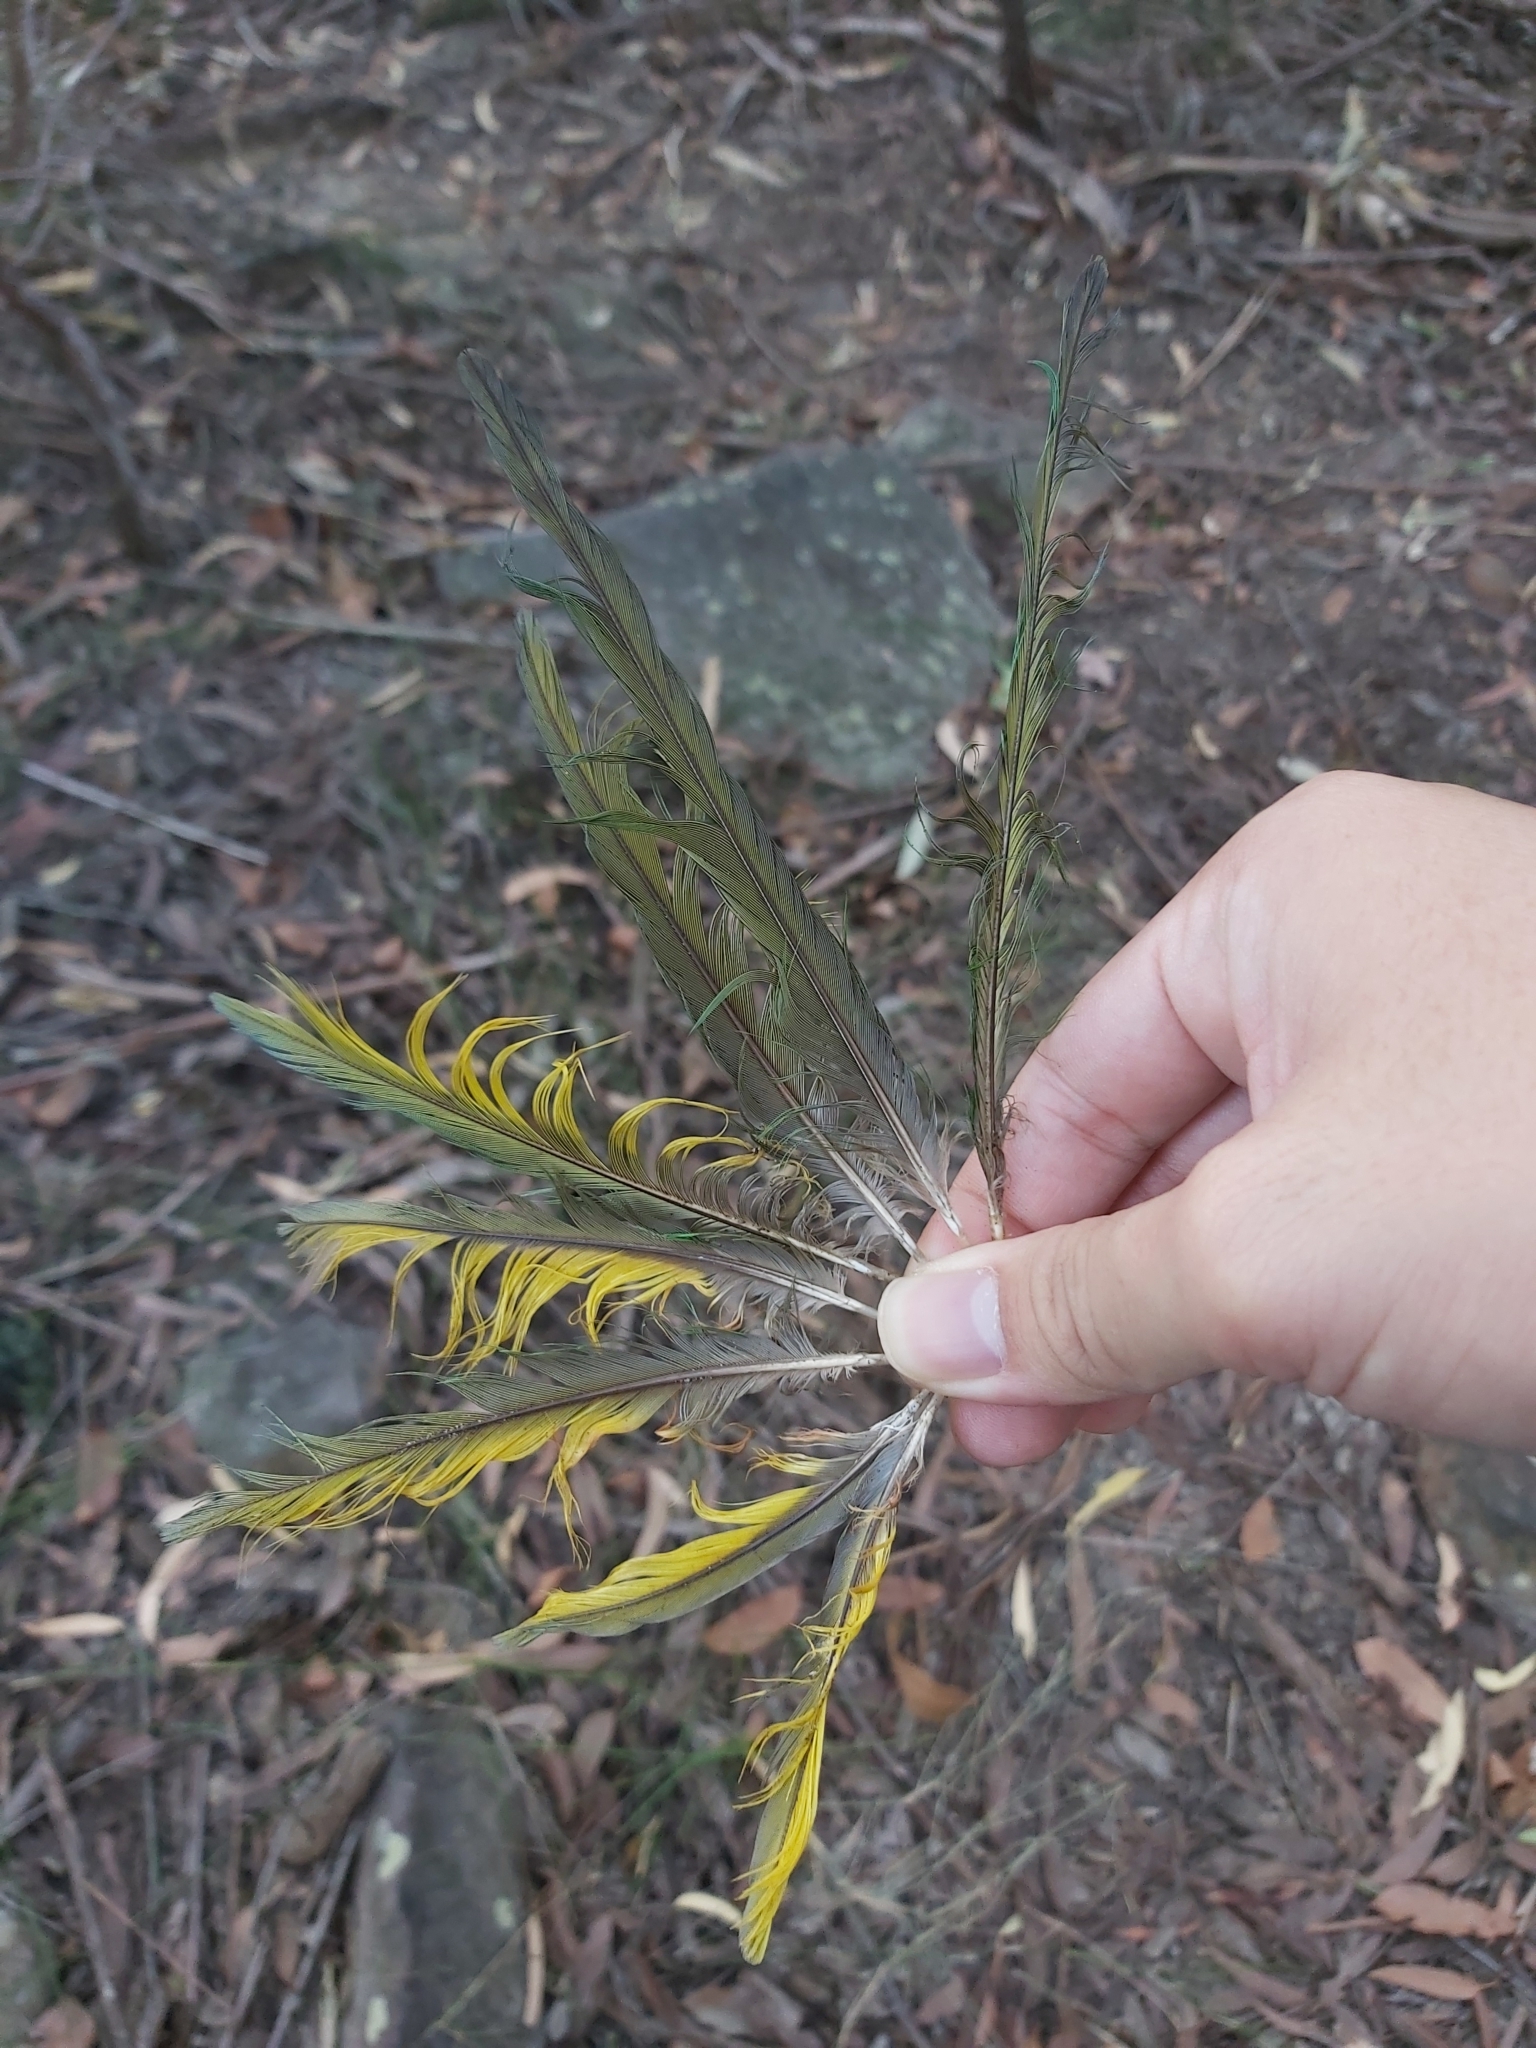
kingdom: Animalia
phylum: Chordata
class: Aves
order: Psittaciformes
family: Psittacidae
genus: Trichoglossus
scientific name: Trichoglossus haematodus
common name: Coconut lorikeet
